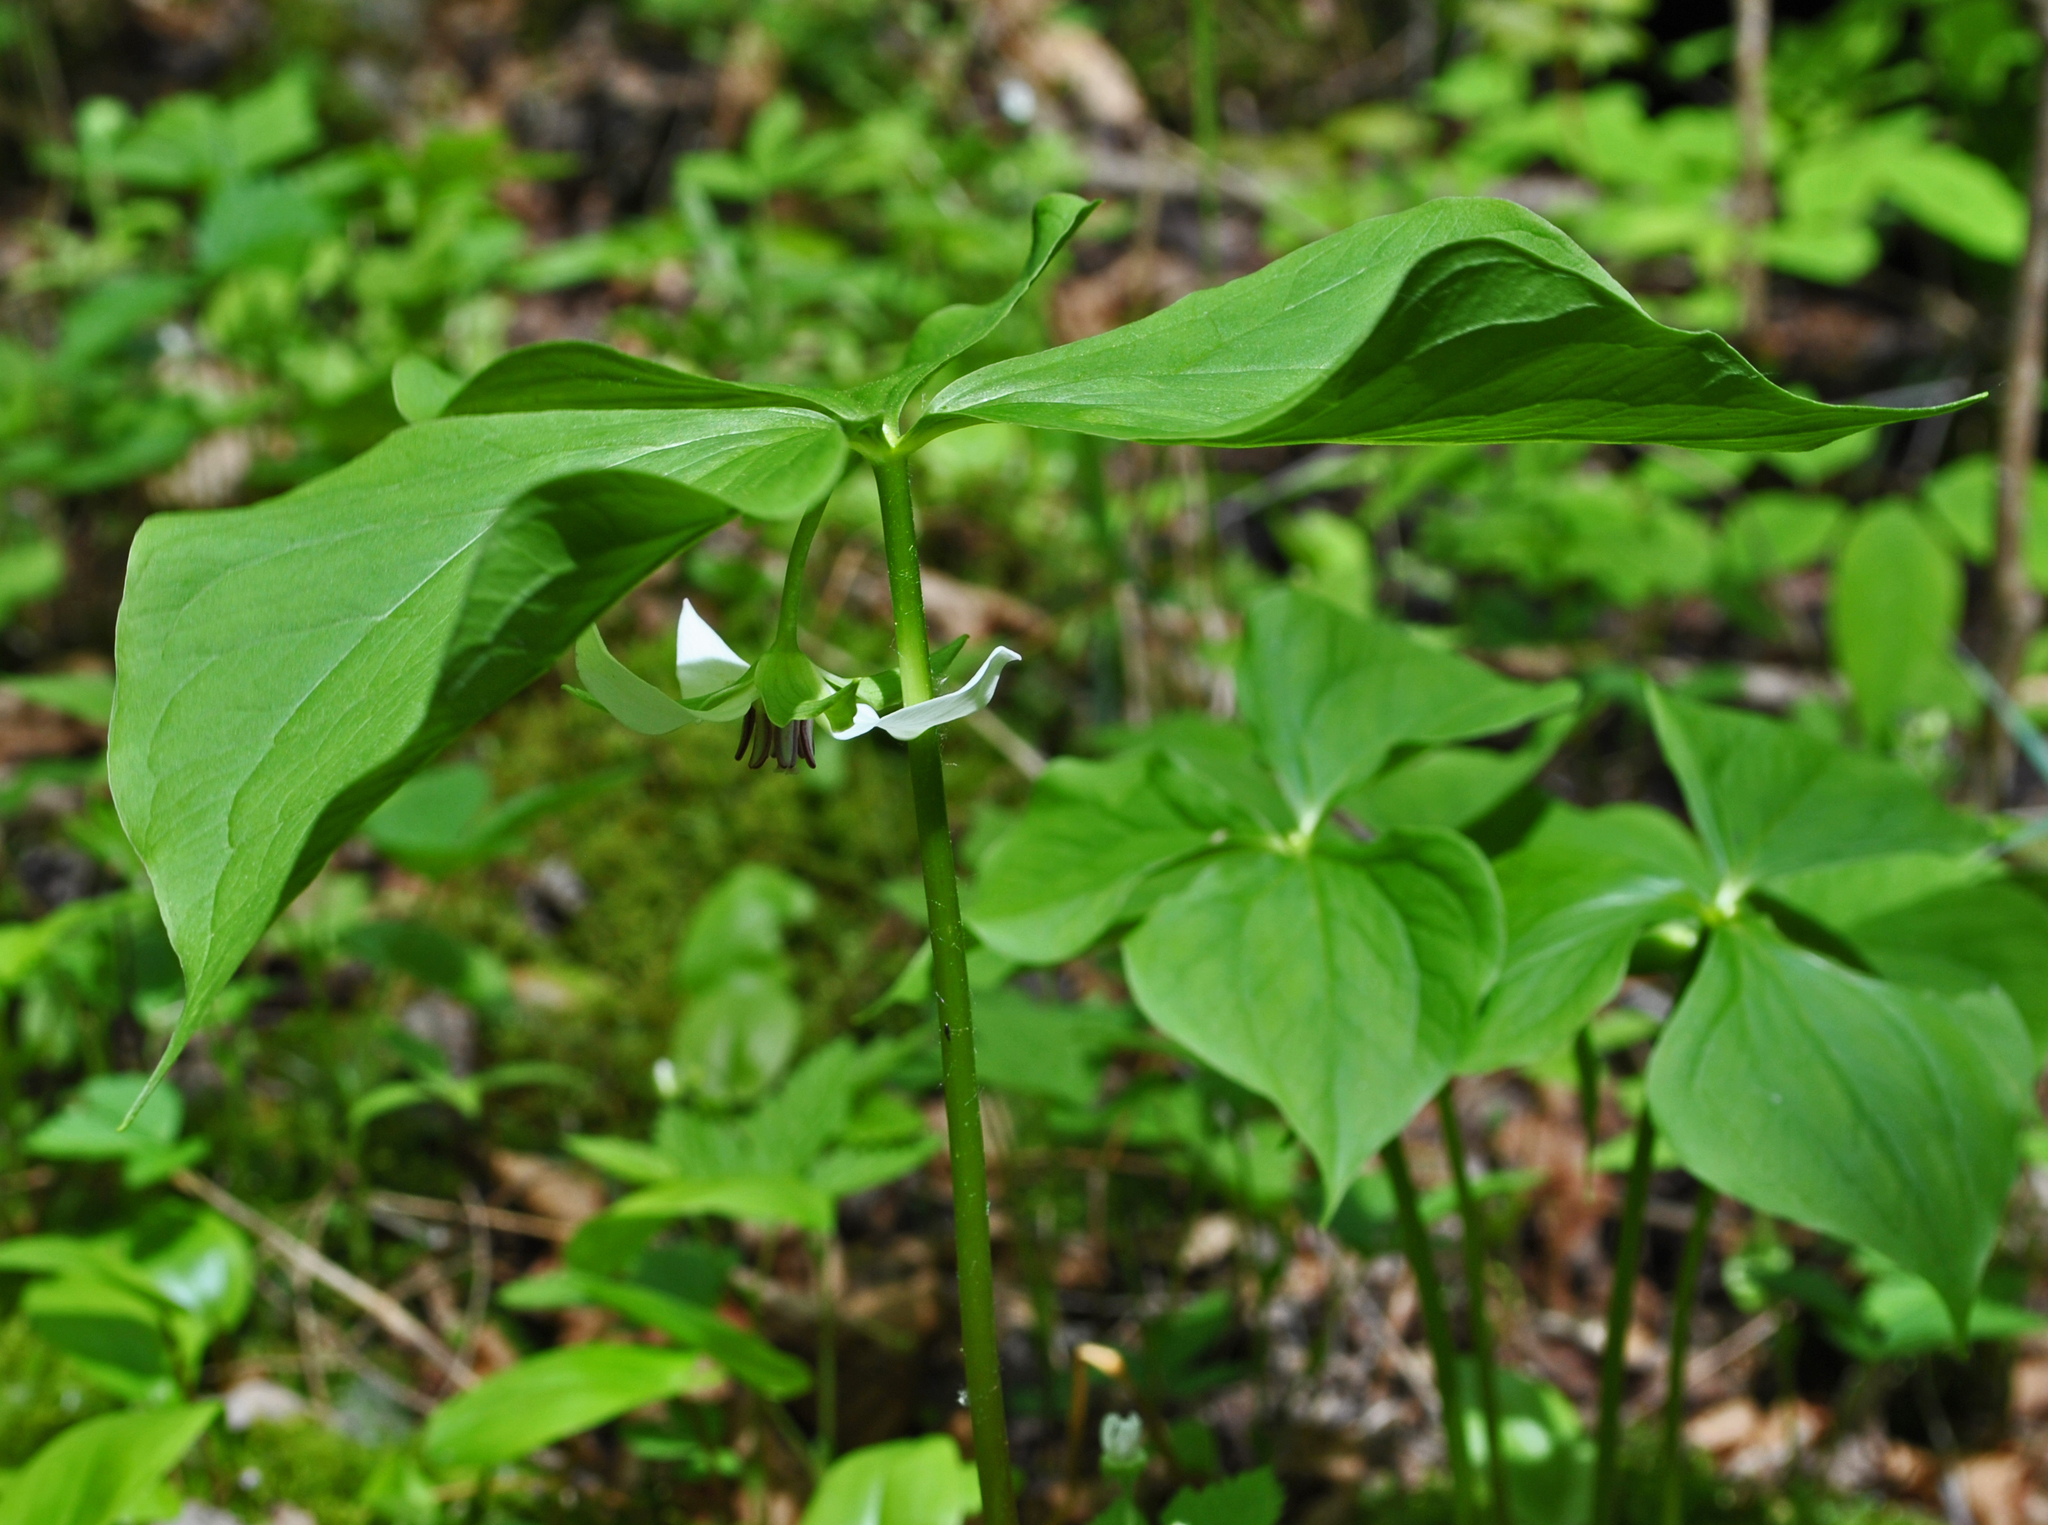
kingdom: Plantae
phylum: Tracheophyta
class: Liliopsida
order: Liliales
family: Melanthiaceae
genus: Trillium
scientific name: Trillium cernuum
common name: Nodding trillium
